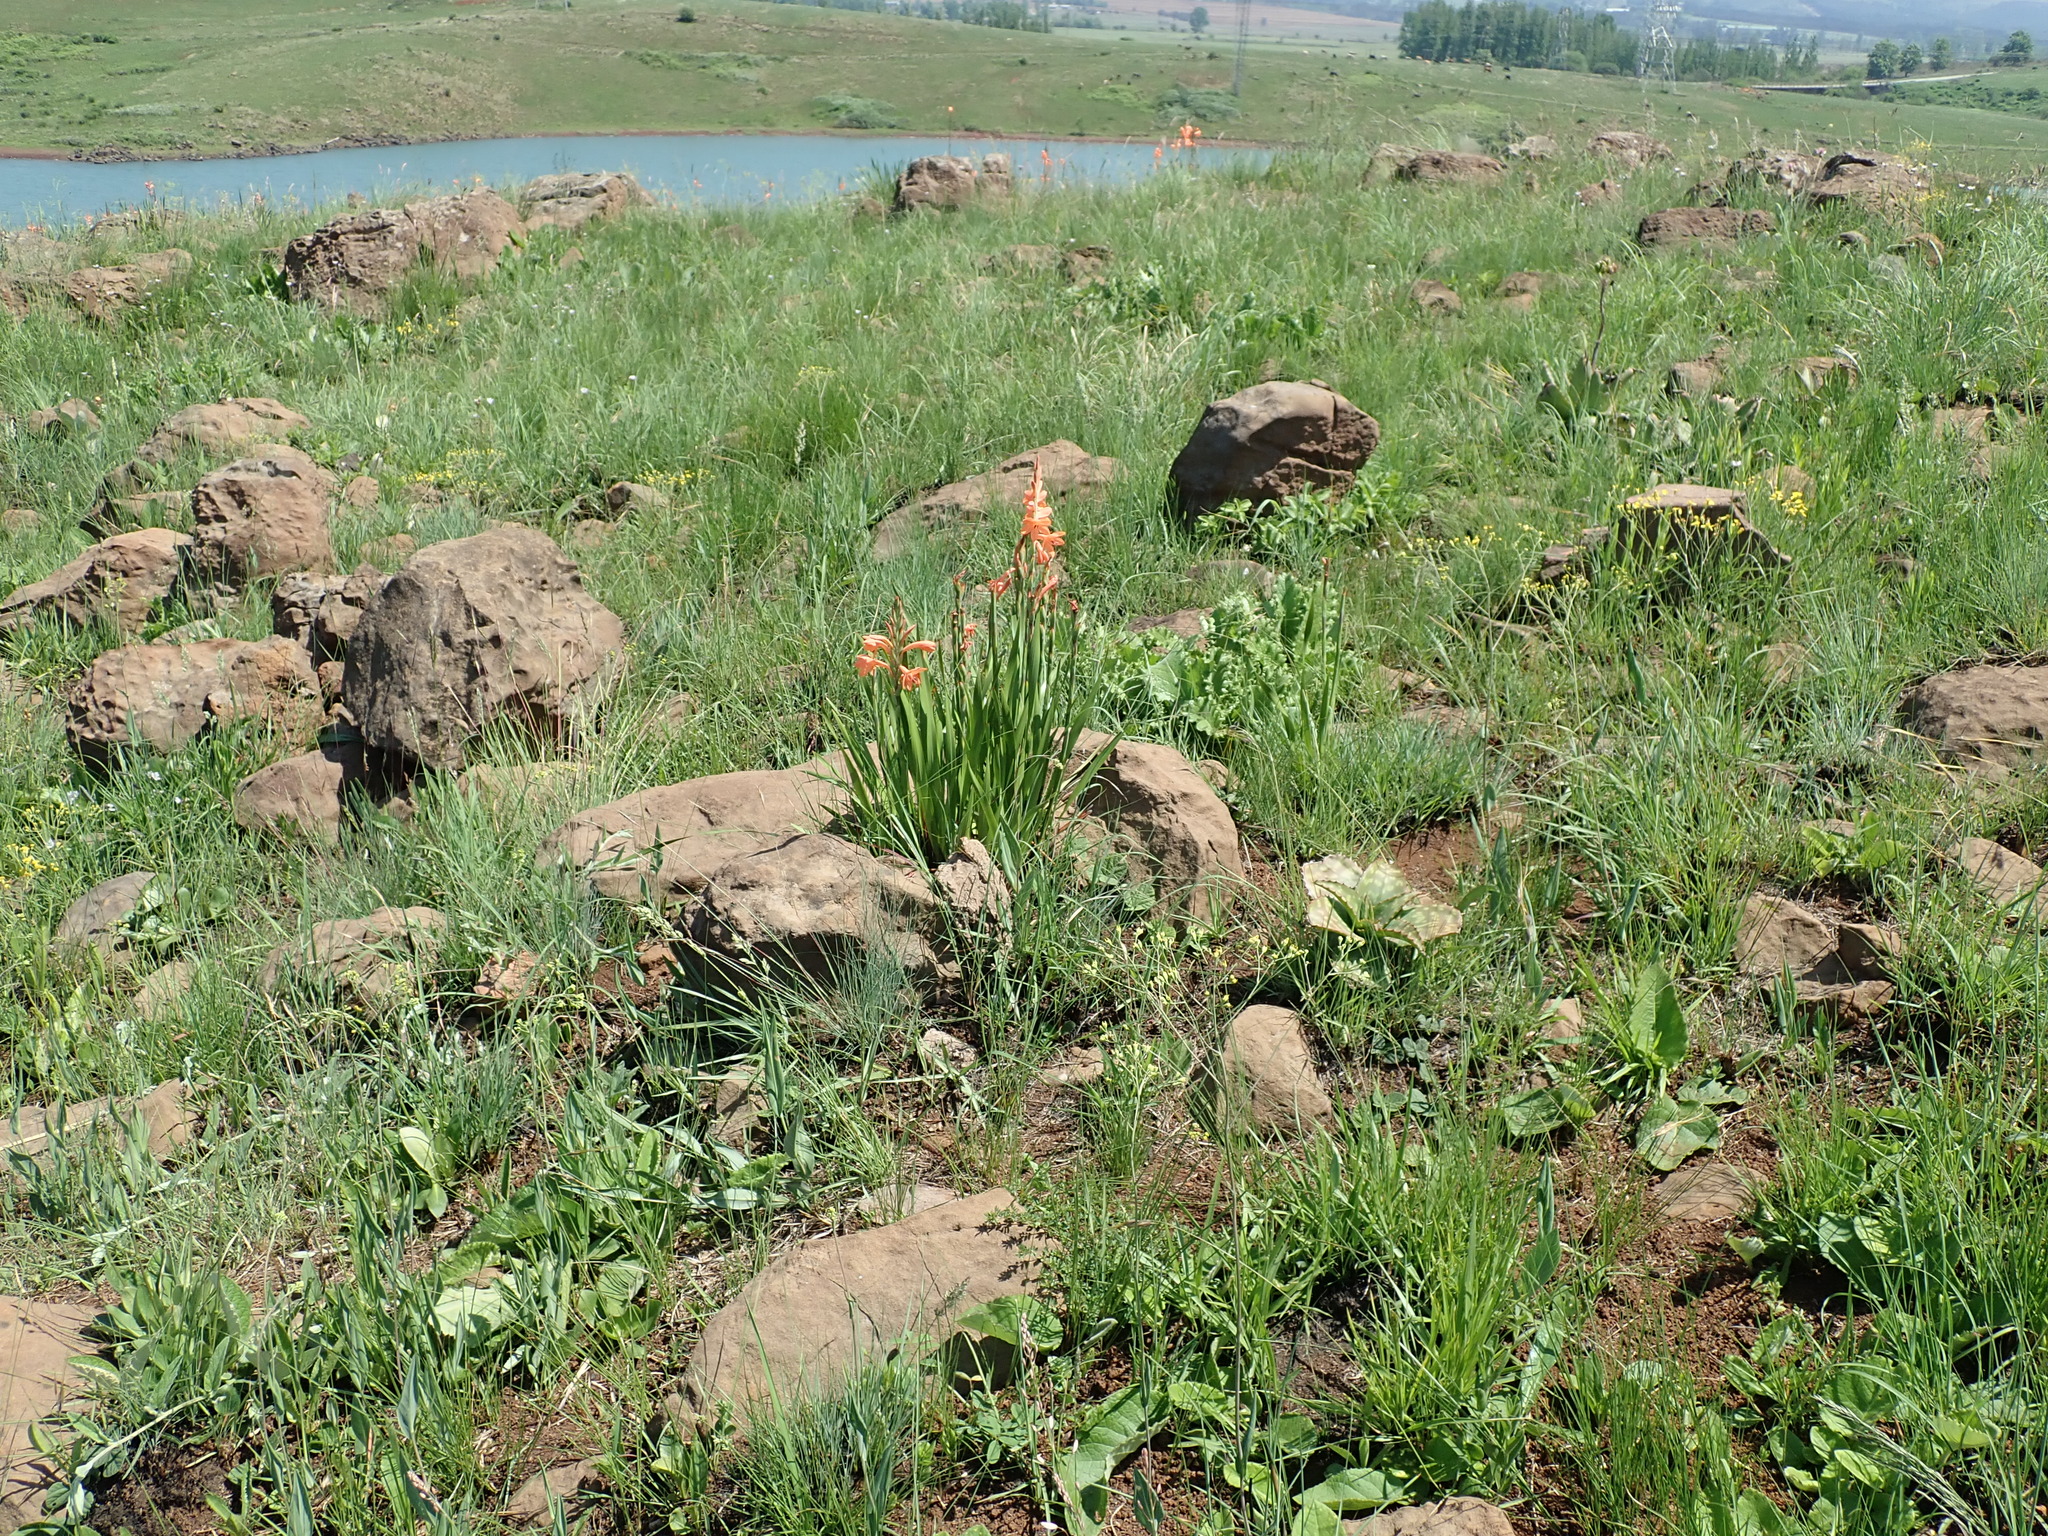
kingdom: Plantae
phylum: Tracheophyta
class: Liliopsida
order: Asparagales
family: Iridaceae
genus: Watsonia
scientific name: Watsonia pillansii
